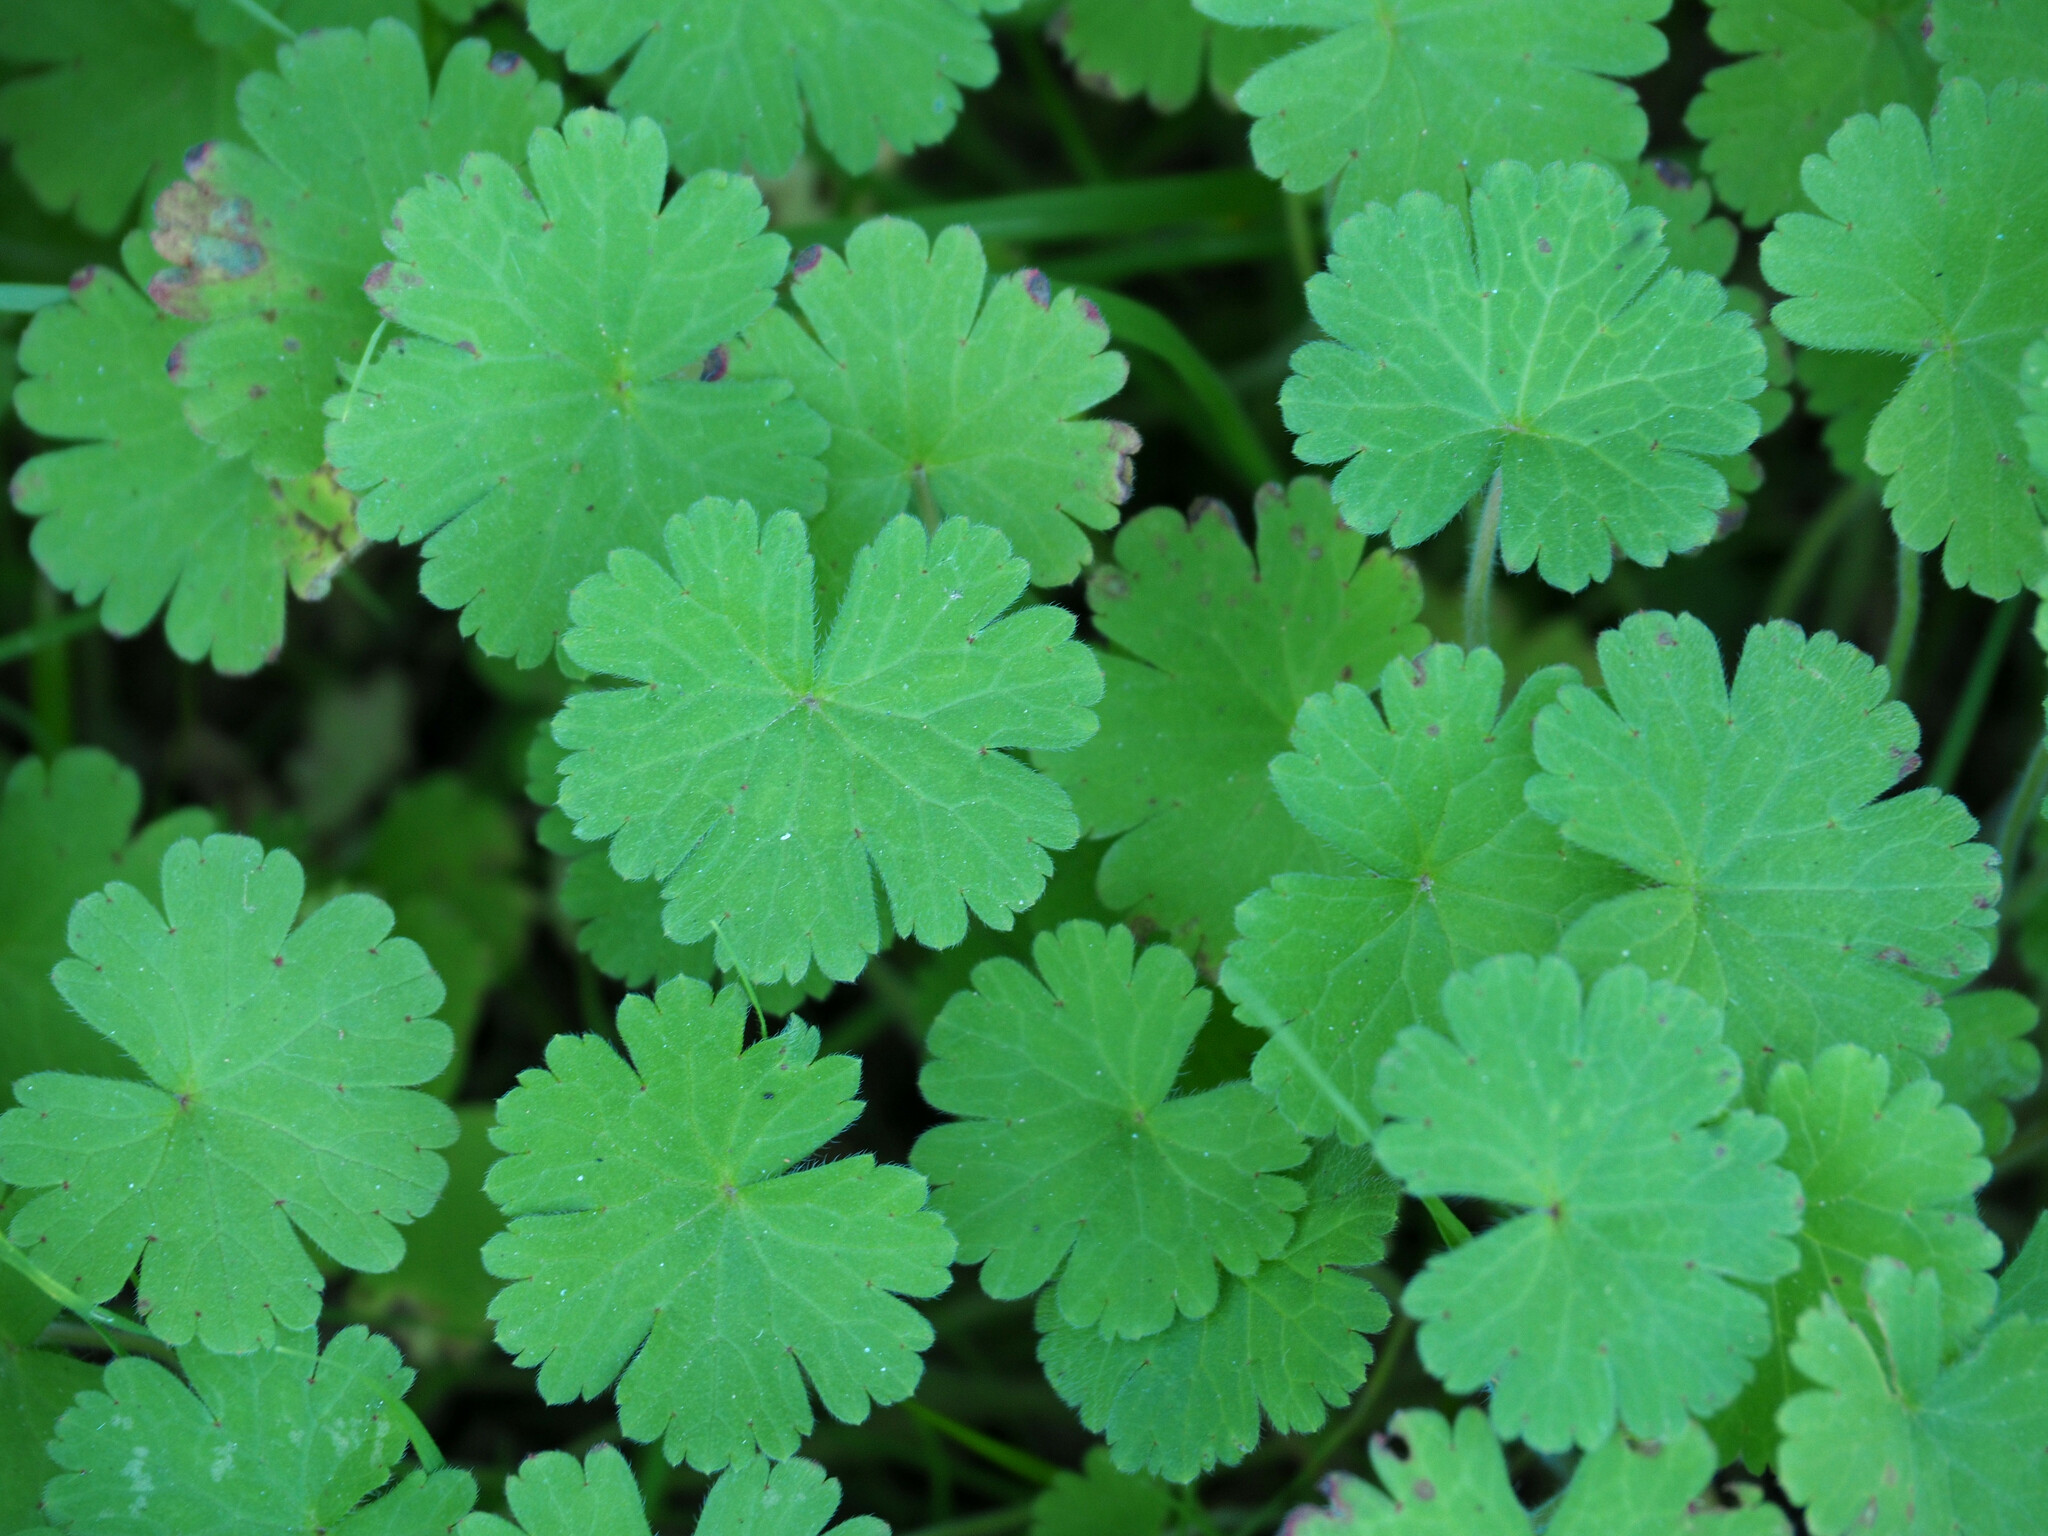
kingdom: Plantae
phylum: Tracheophyta
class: Magnoliopsida
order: Geraniales
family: Geraniaceae
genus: Geranium
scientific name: Geranium rotundifolium
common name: Round-leaved crane's-bill
